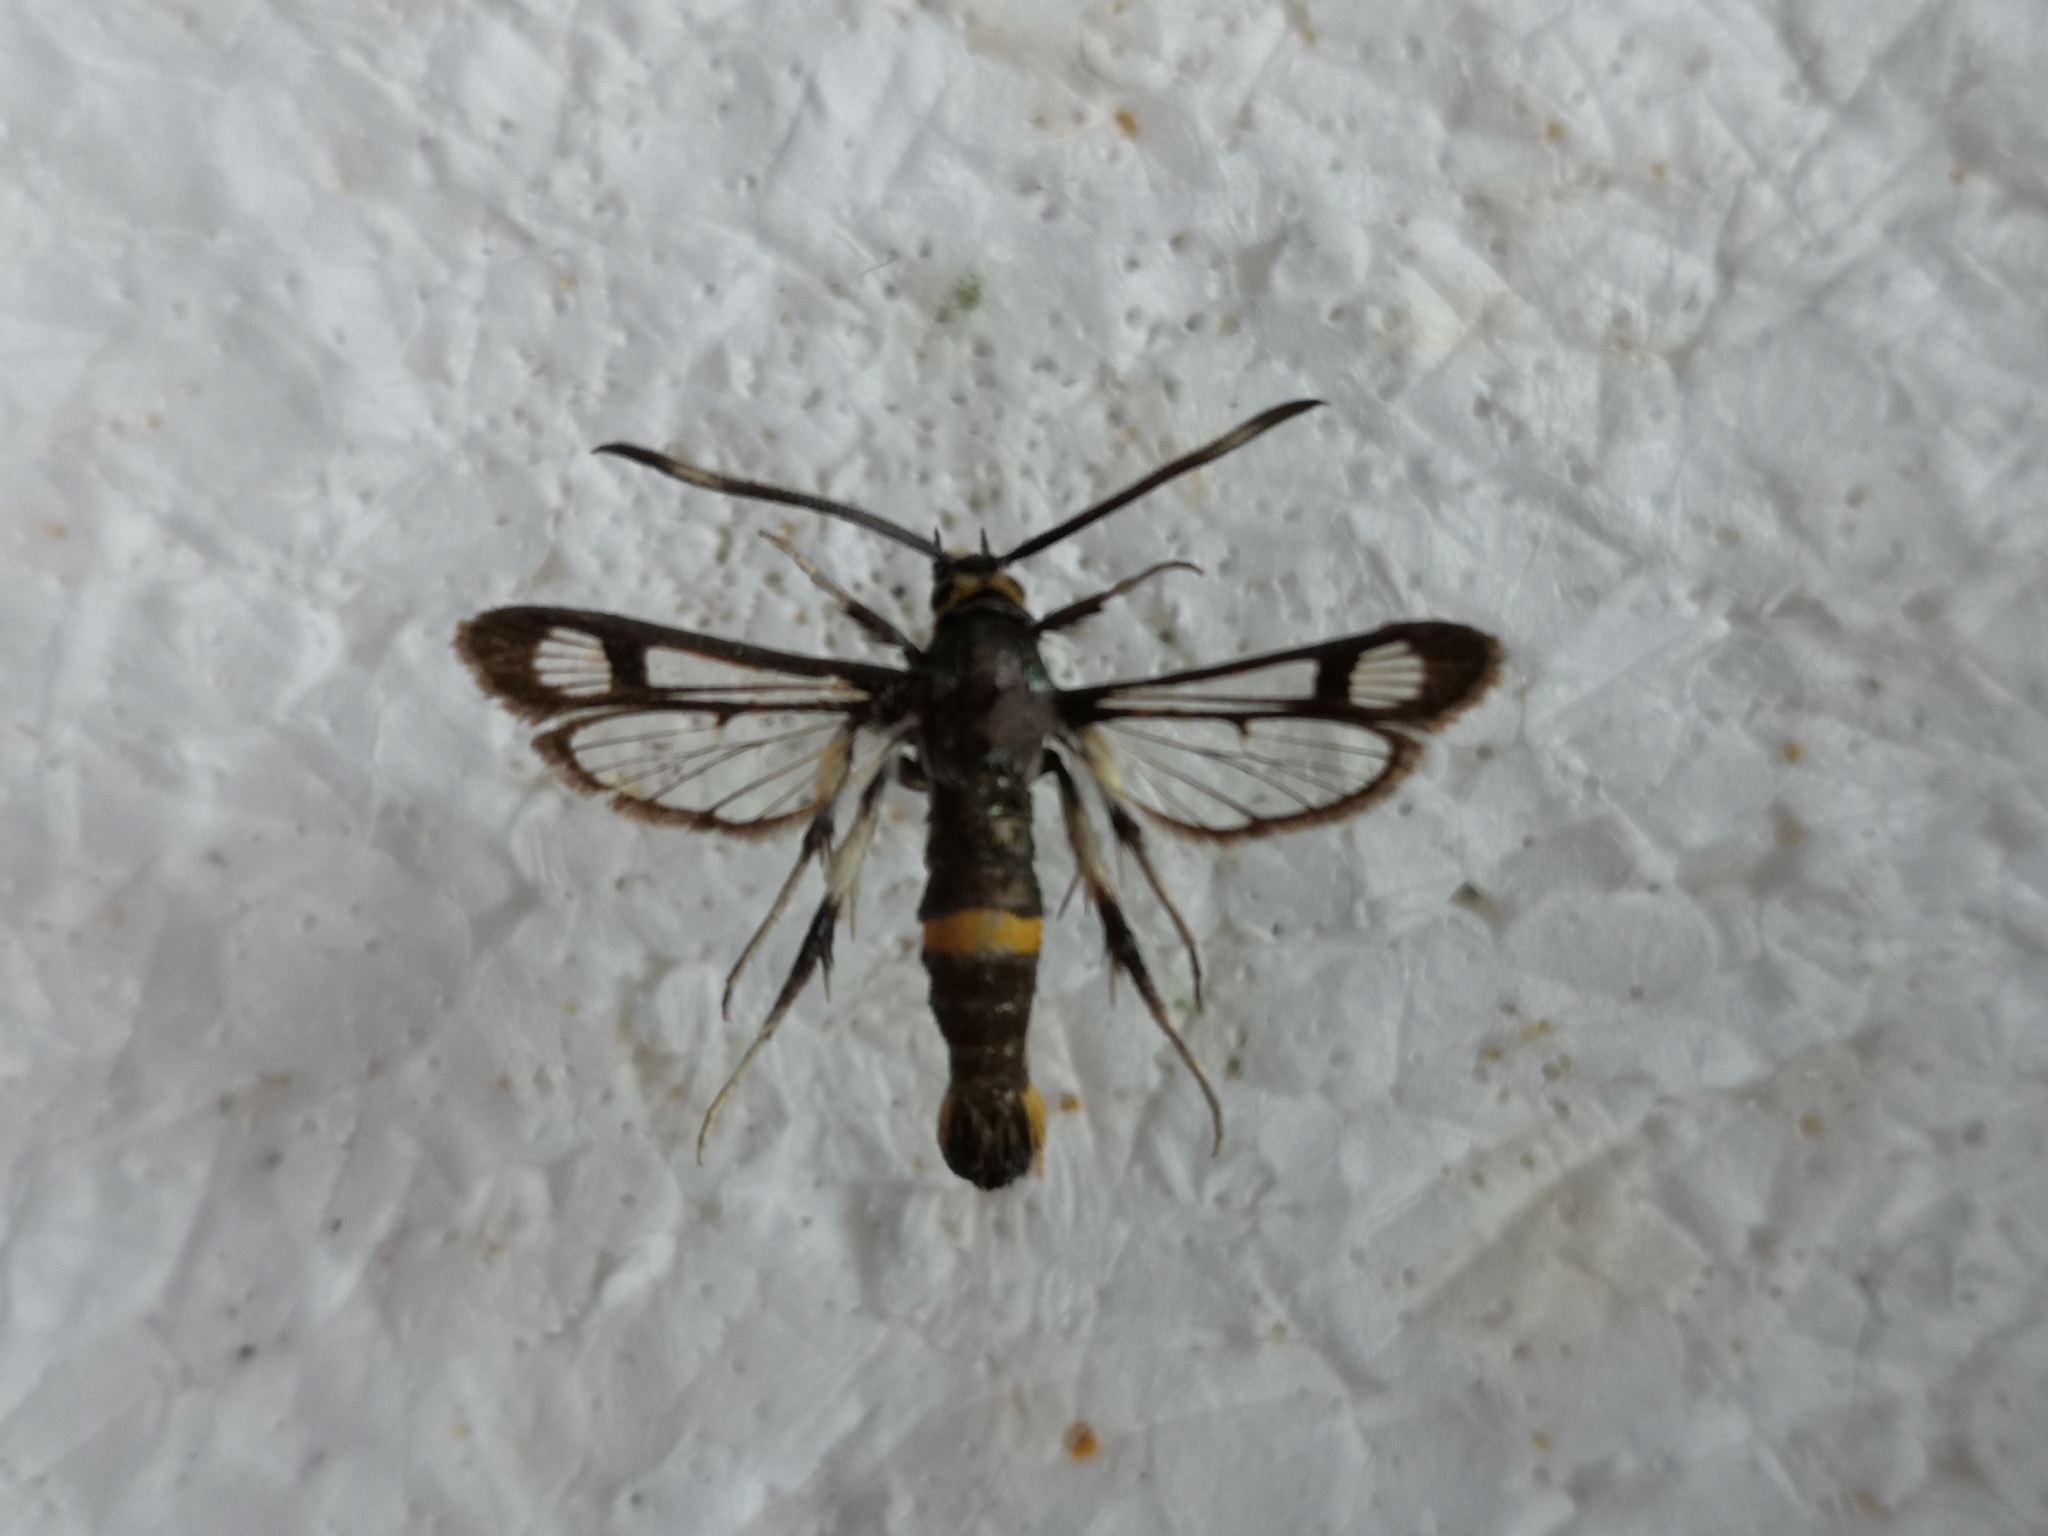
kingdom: Animalia
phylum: Arthropoda
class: Insecta
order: Lepidoptera
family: Sesiidae
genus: Pyropteron
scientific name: Pyropteron pipiziformis
